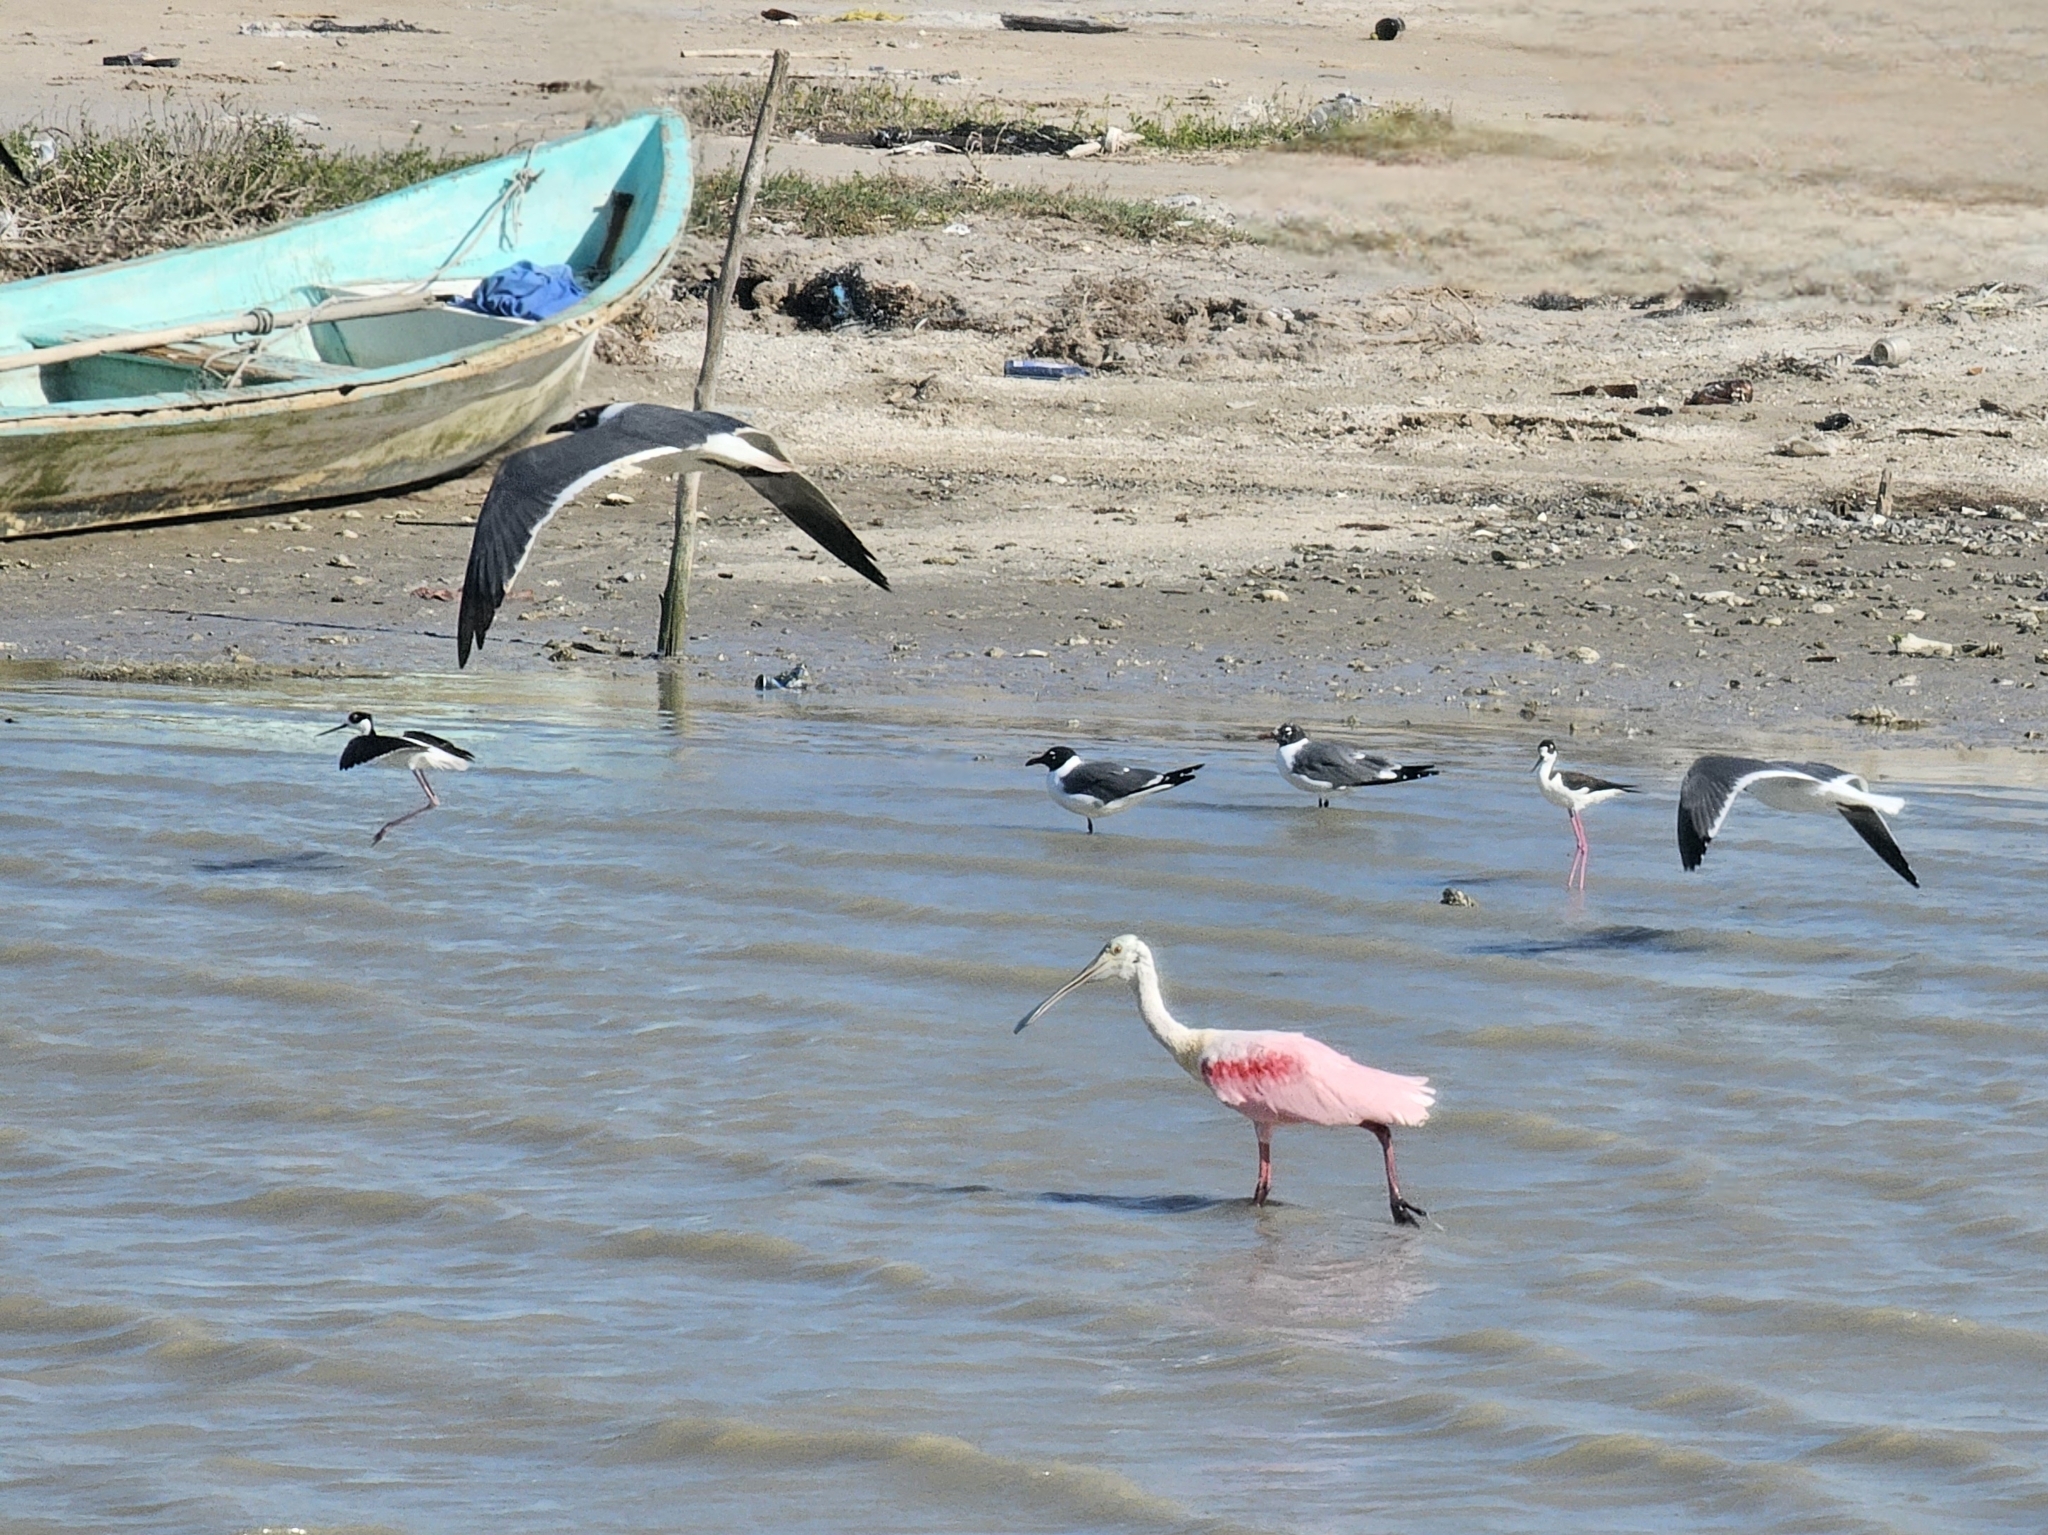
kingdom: Animalia
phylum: Chordata
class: Aves
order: Pelecaniformes
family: Threskiornithidae
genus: Platalea
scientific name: Platalea ajaja
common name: Roseate spoonbill
